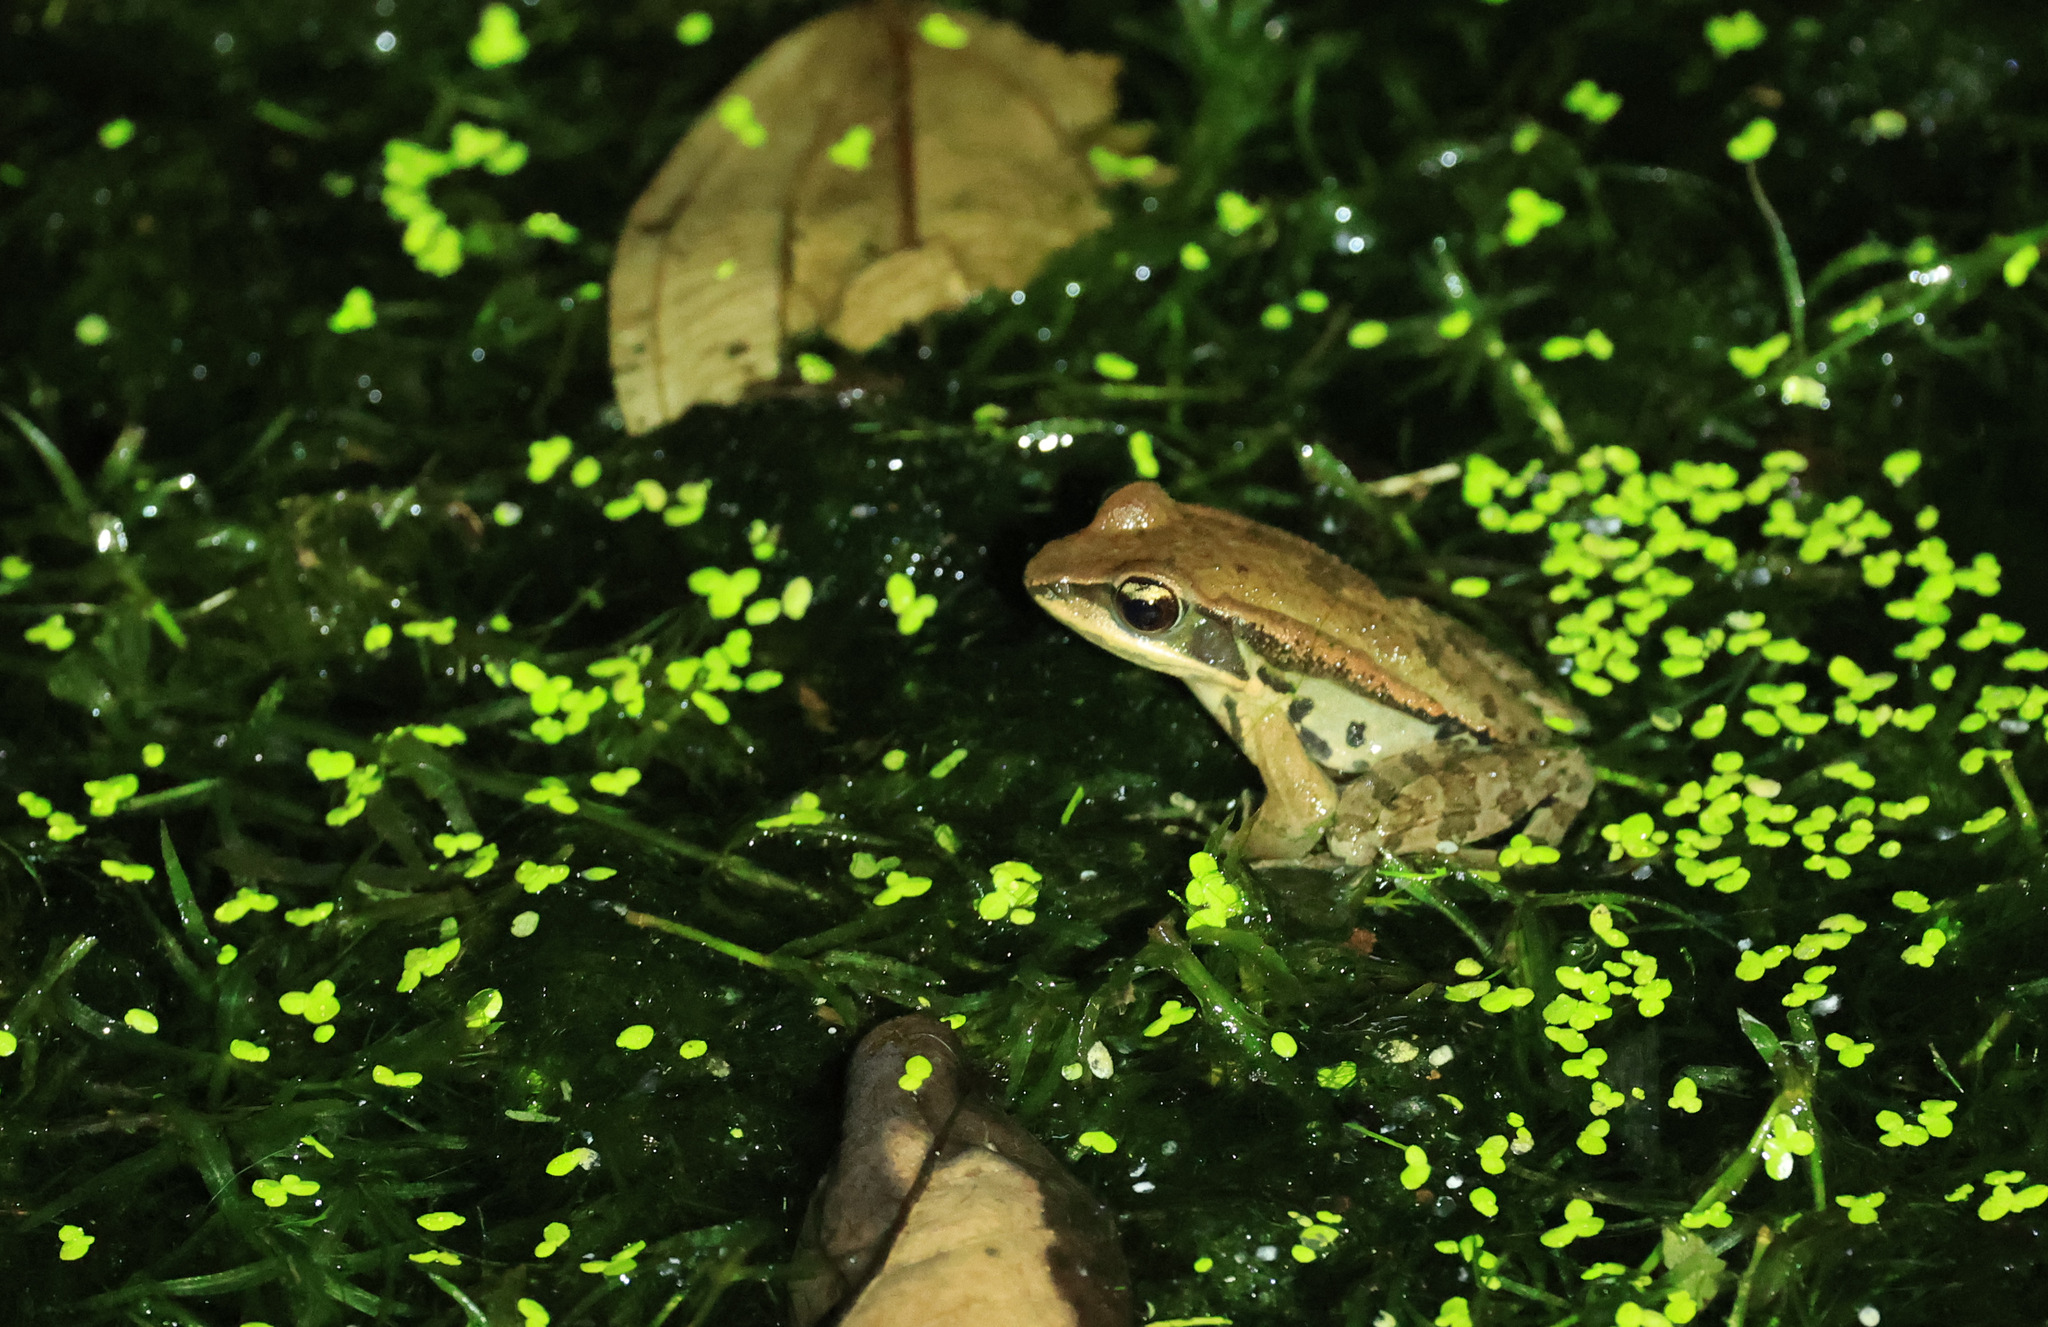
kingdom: Animalia
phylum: Chordata
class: Amphibia
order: Anura
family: Ranidae
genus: Hylarana
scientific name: Hylarana latouchii
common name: Broad-folded frog
